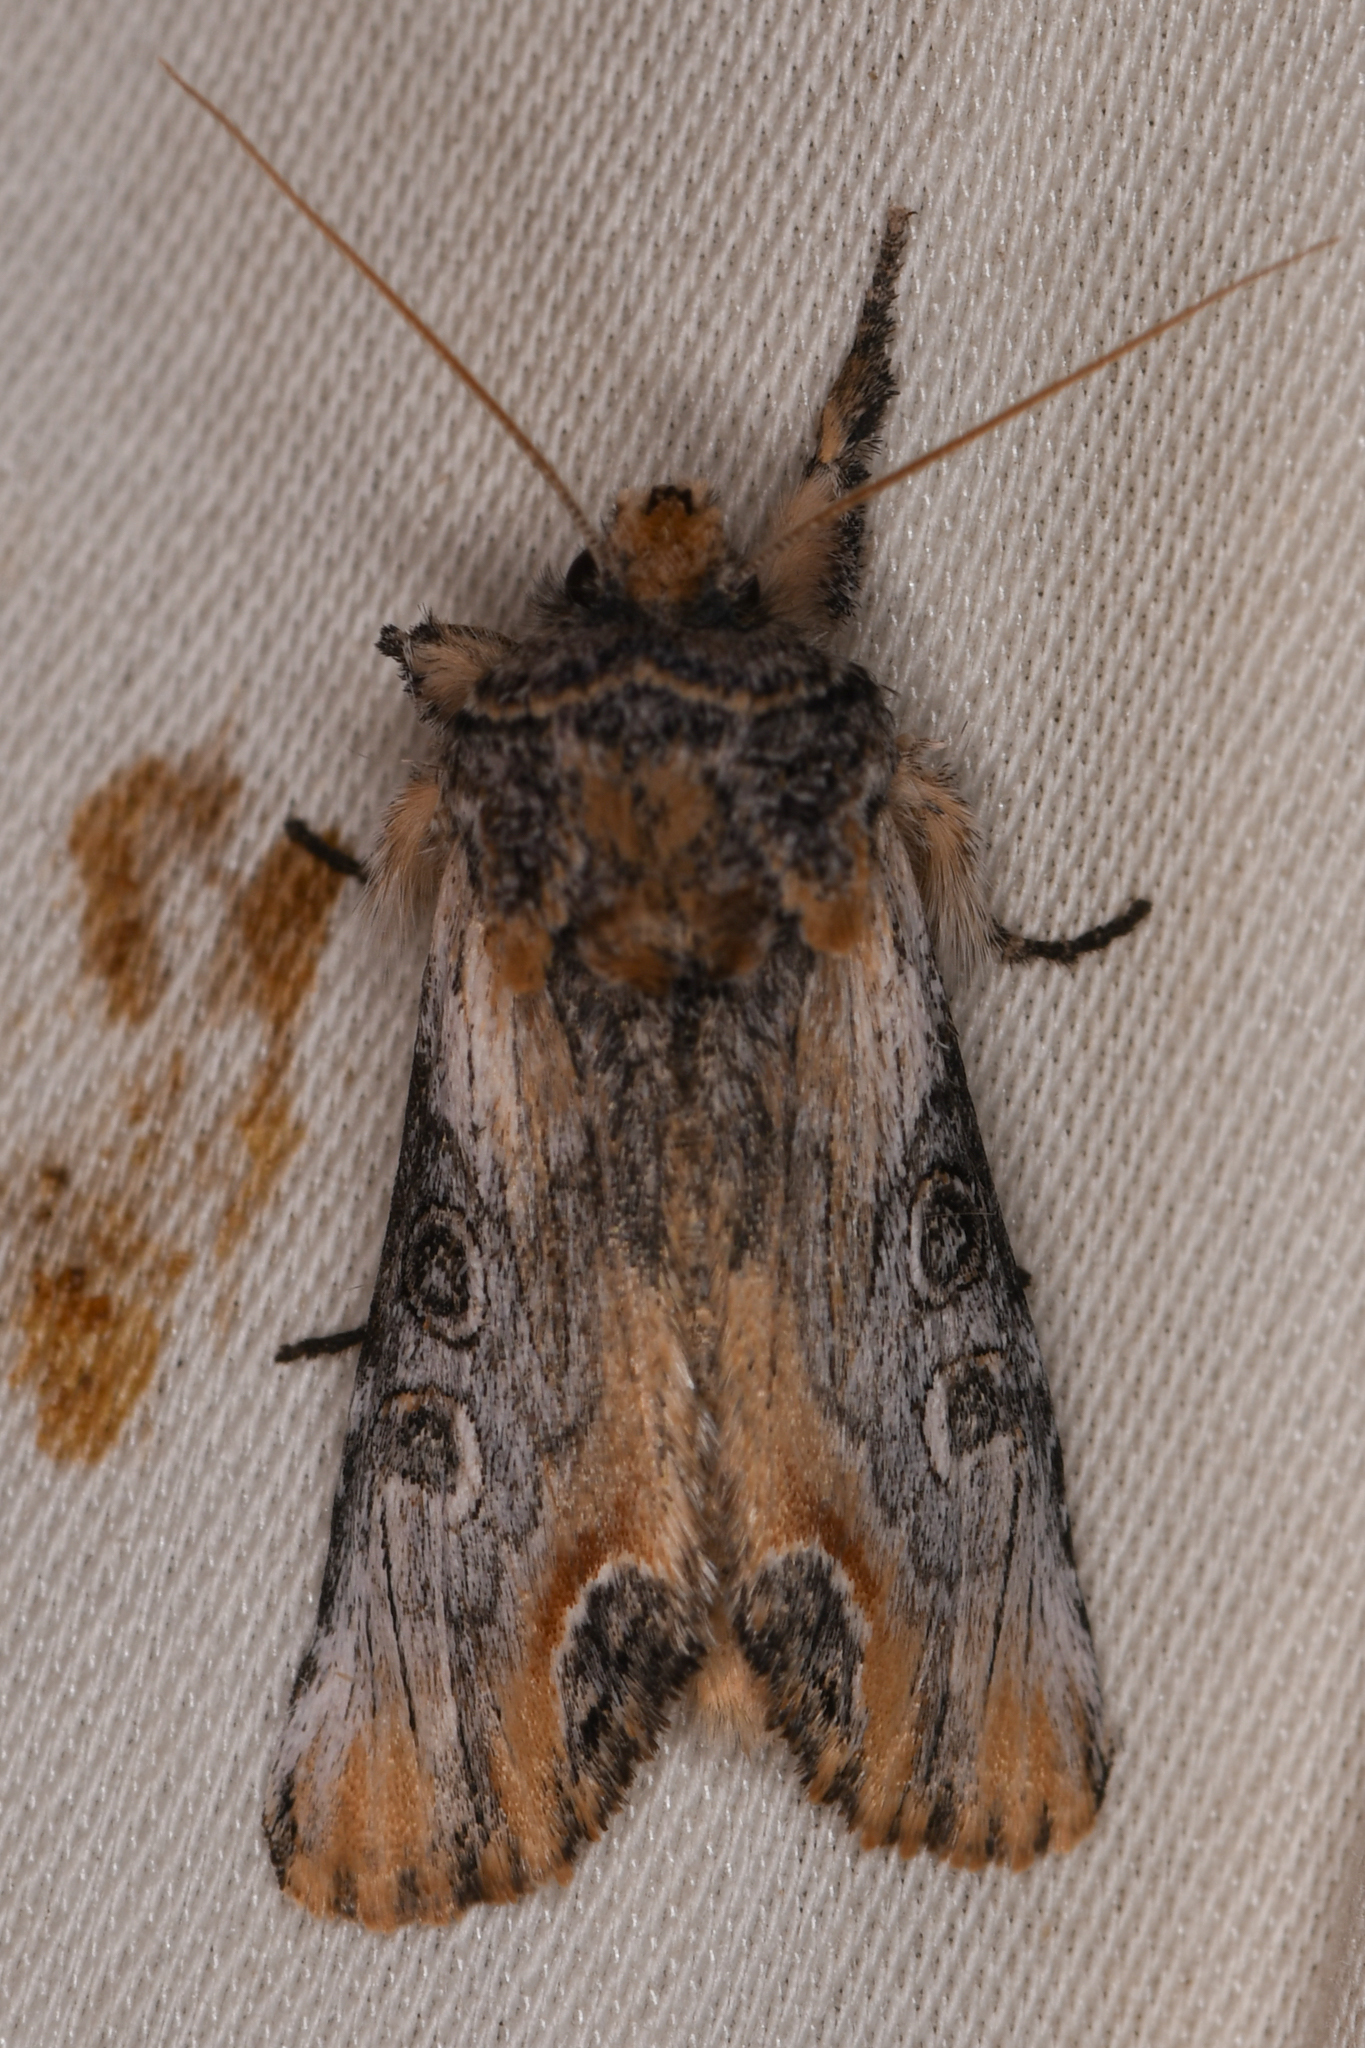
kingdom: Animalia
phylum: Arthropoda
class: Insecta
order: Lepidoptera
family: Noctuidae
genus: Walterella
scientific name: Walterella ocellata
